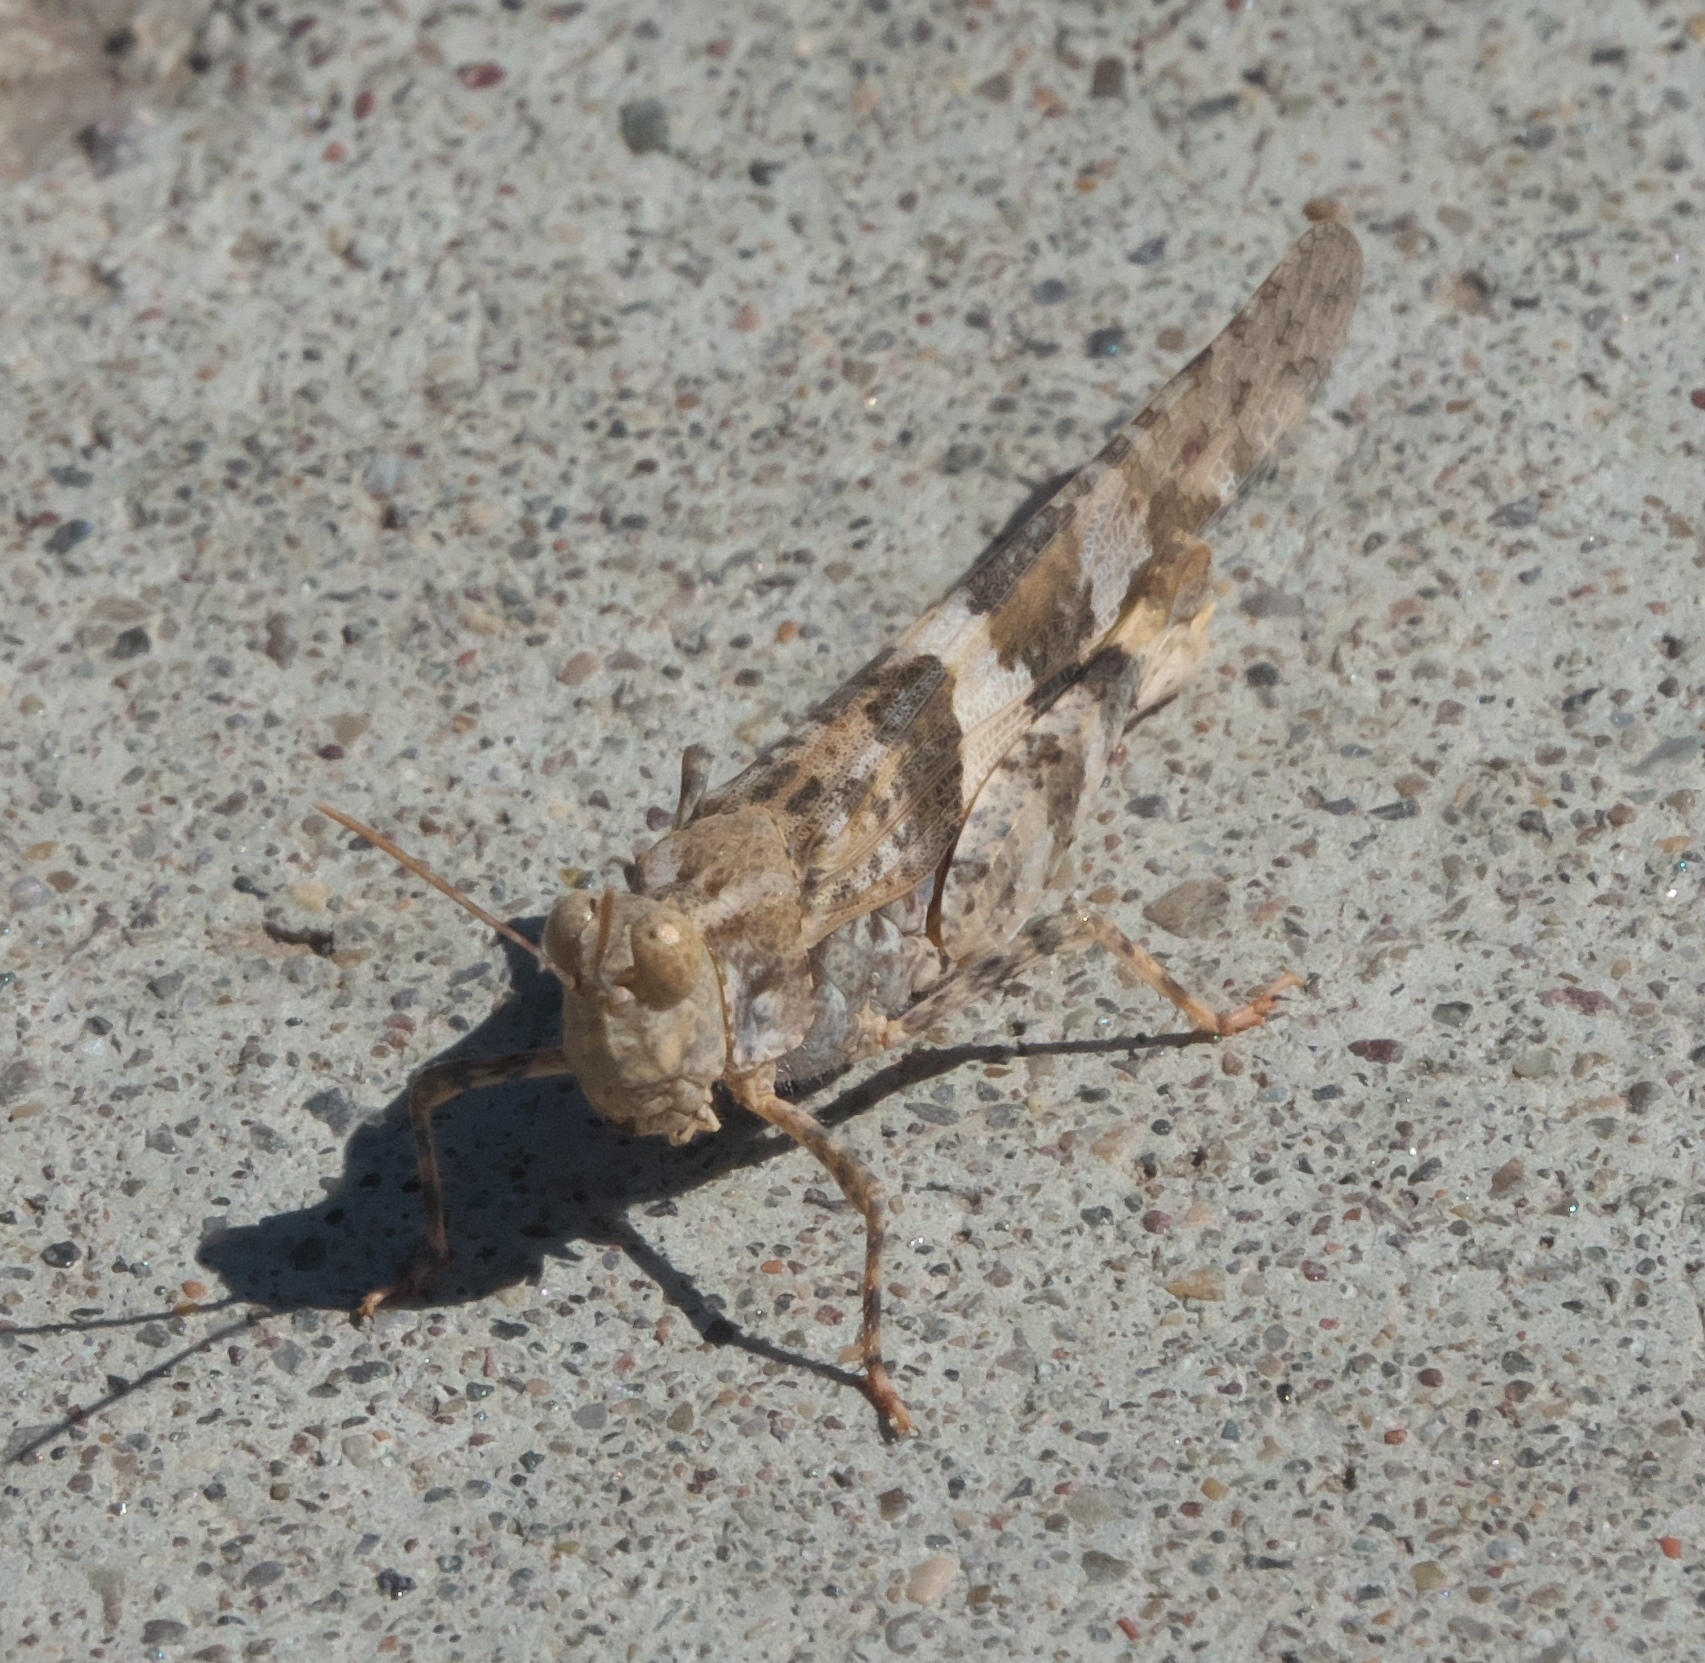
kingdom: Animalia
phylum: Arthropoda
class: Insecta
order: Orthoptera
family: Acrididae
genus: Trimerotropis
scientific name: Trimerotropis pallidipennis
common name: Pallid-winged grasshopper
